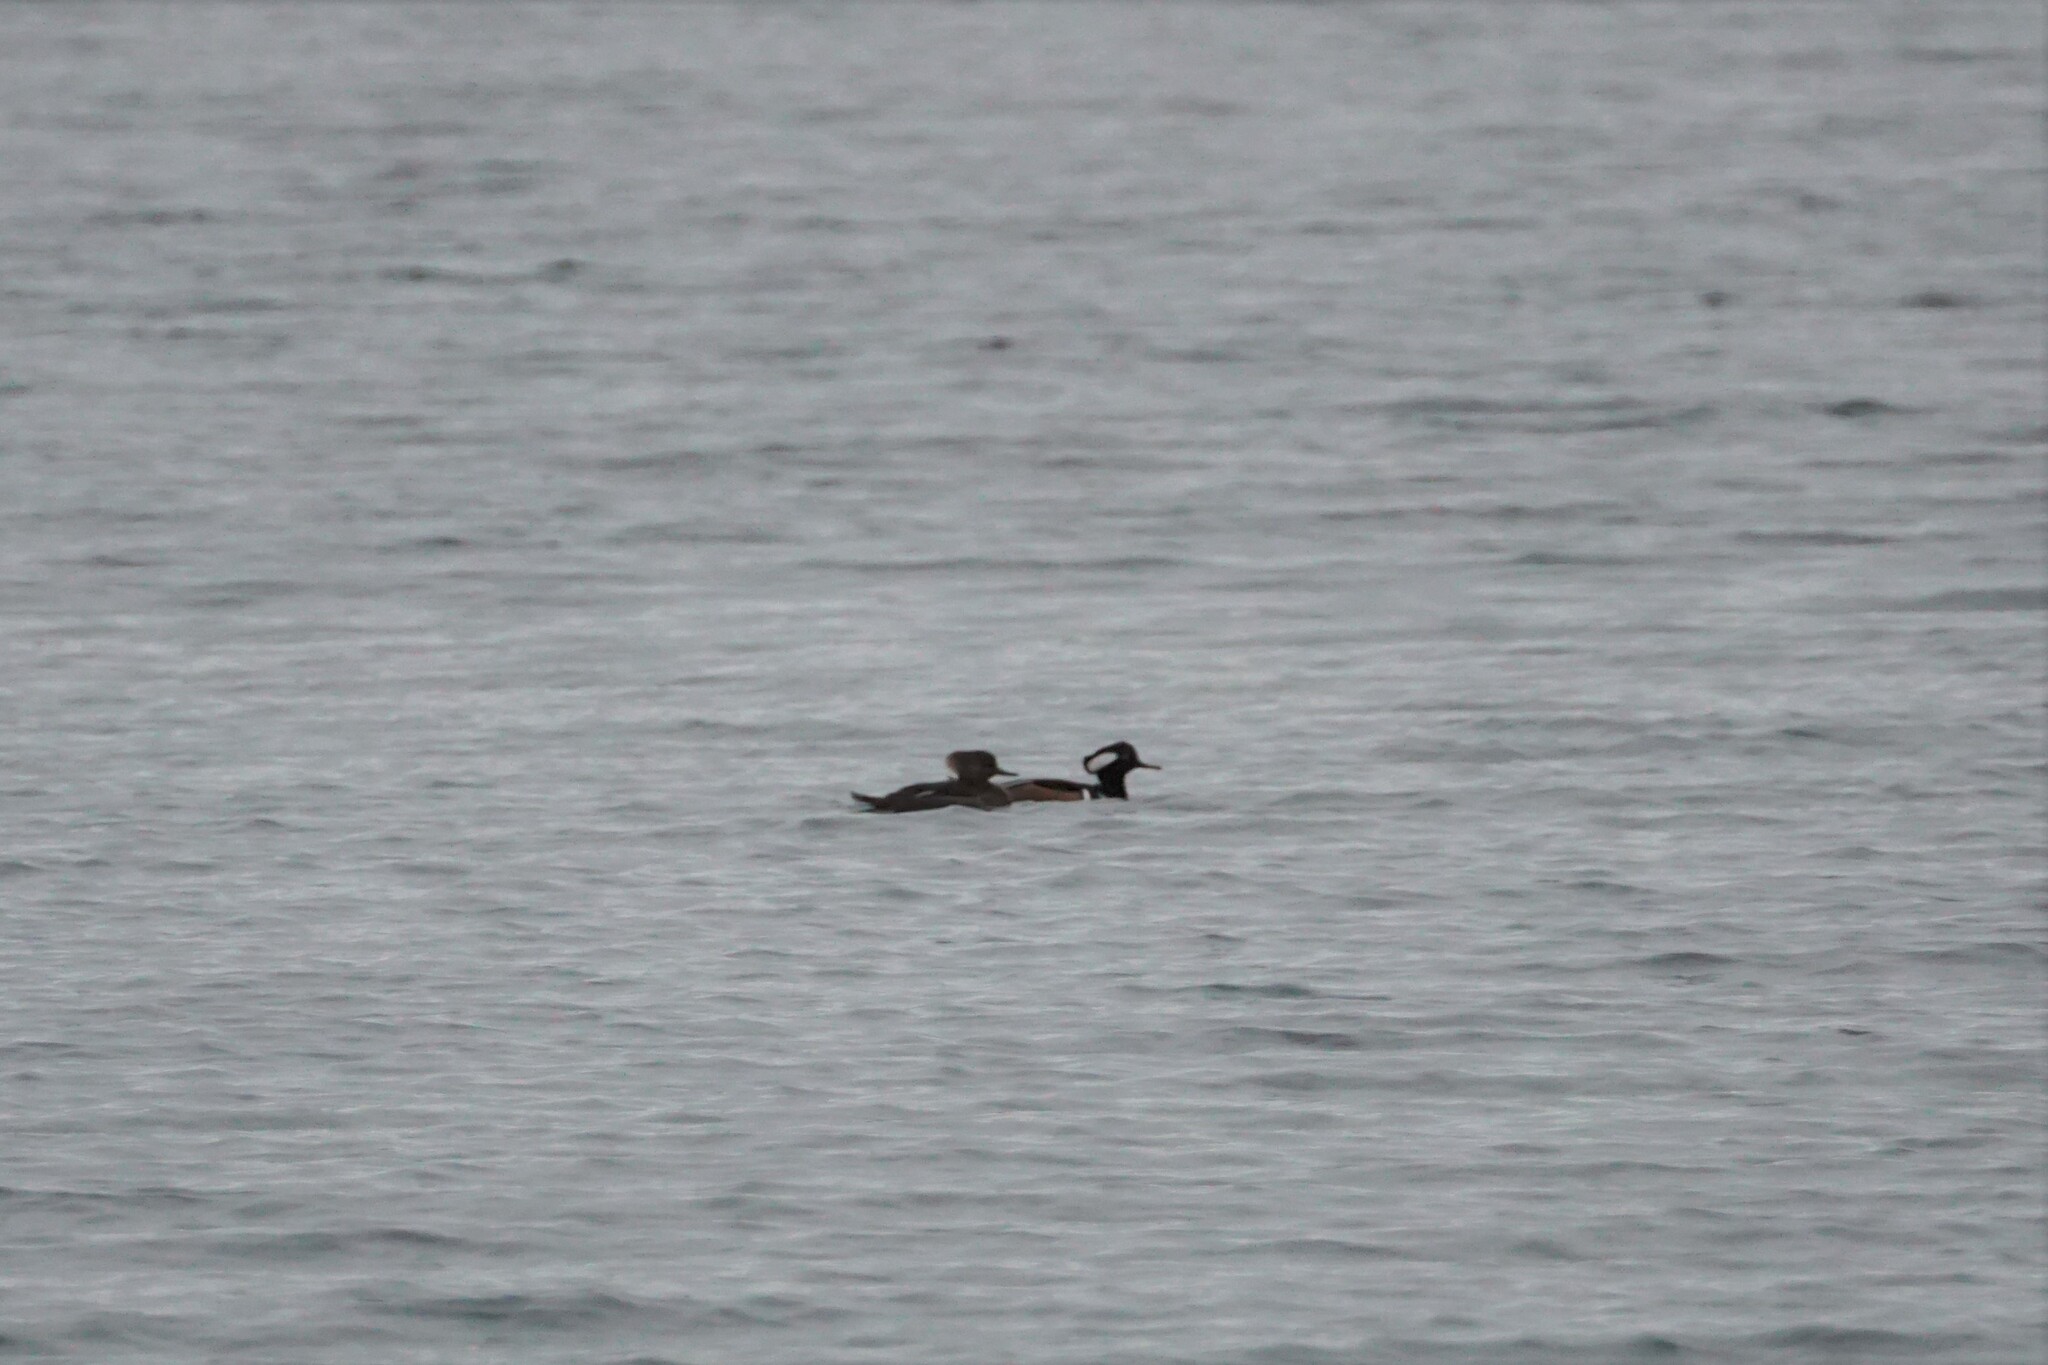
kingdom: Animalia
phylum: Chordata
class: Aves
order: Anseriformes
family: Anatidae
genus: Lophodytes
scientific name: Lophodytes cucullatus
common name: Hooded merganser
